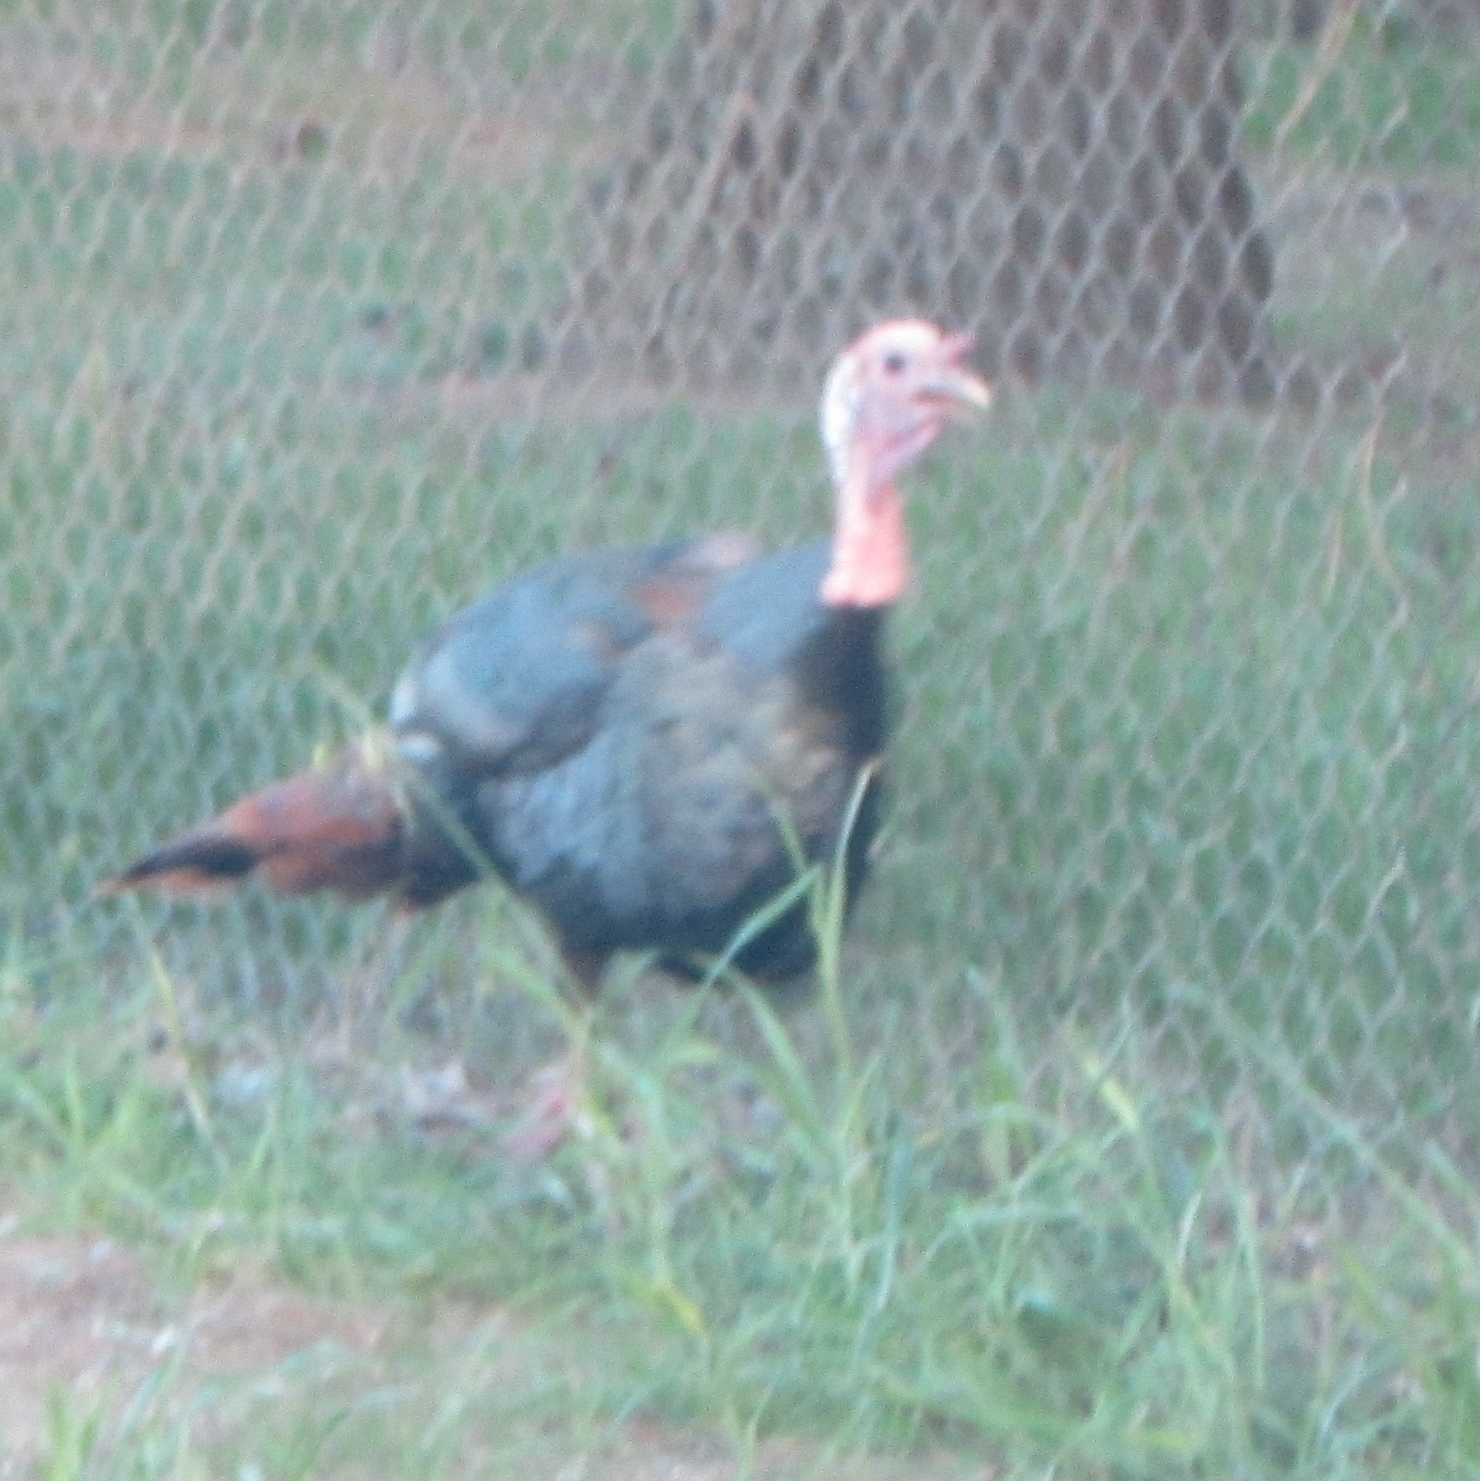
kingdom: Animalia
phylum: Chordata
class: Aves
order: Galliformes
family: Phasianidae
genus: Meleagris
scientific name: Meleagris gallopavo
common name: Wild turkey
